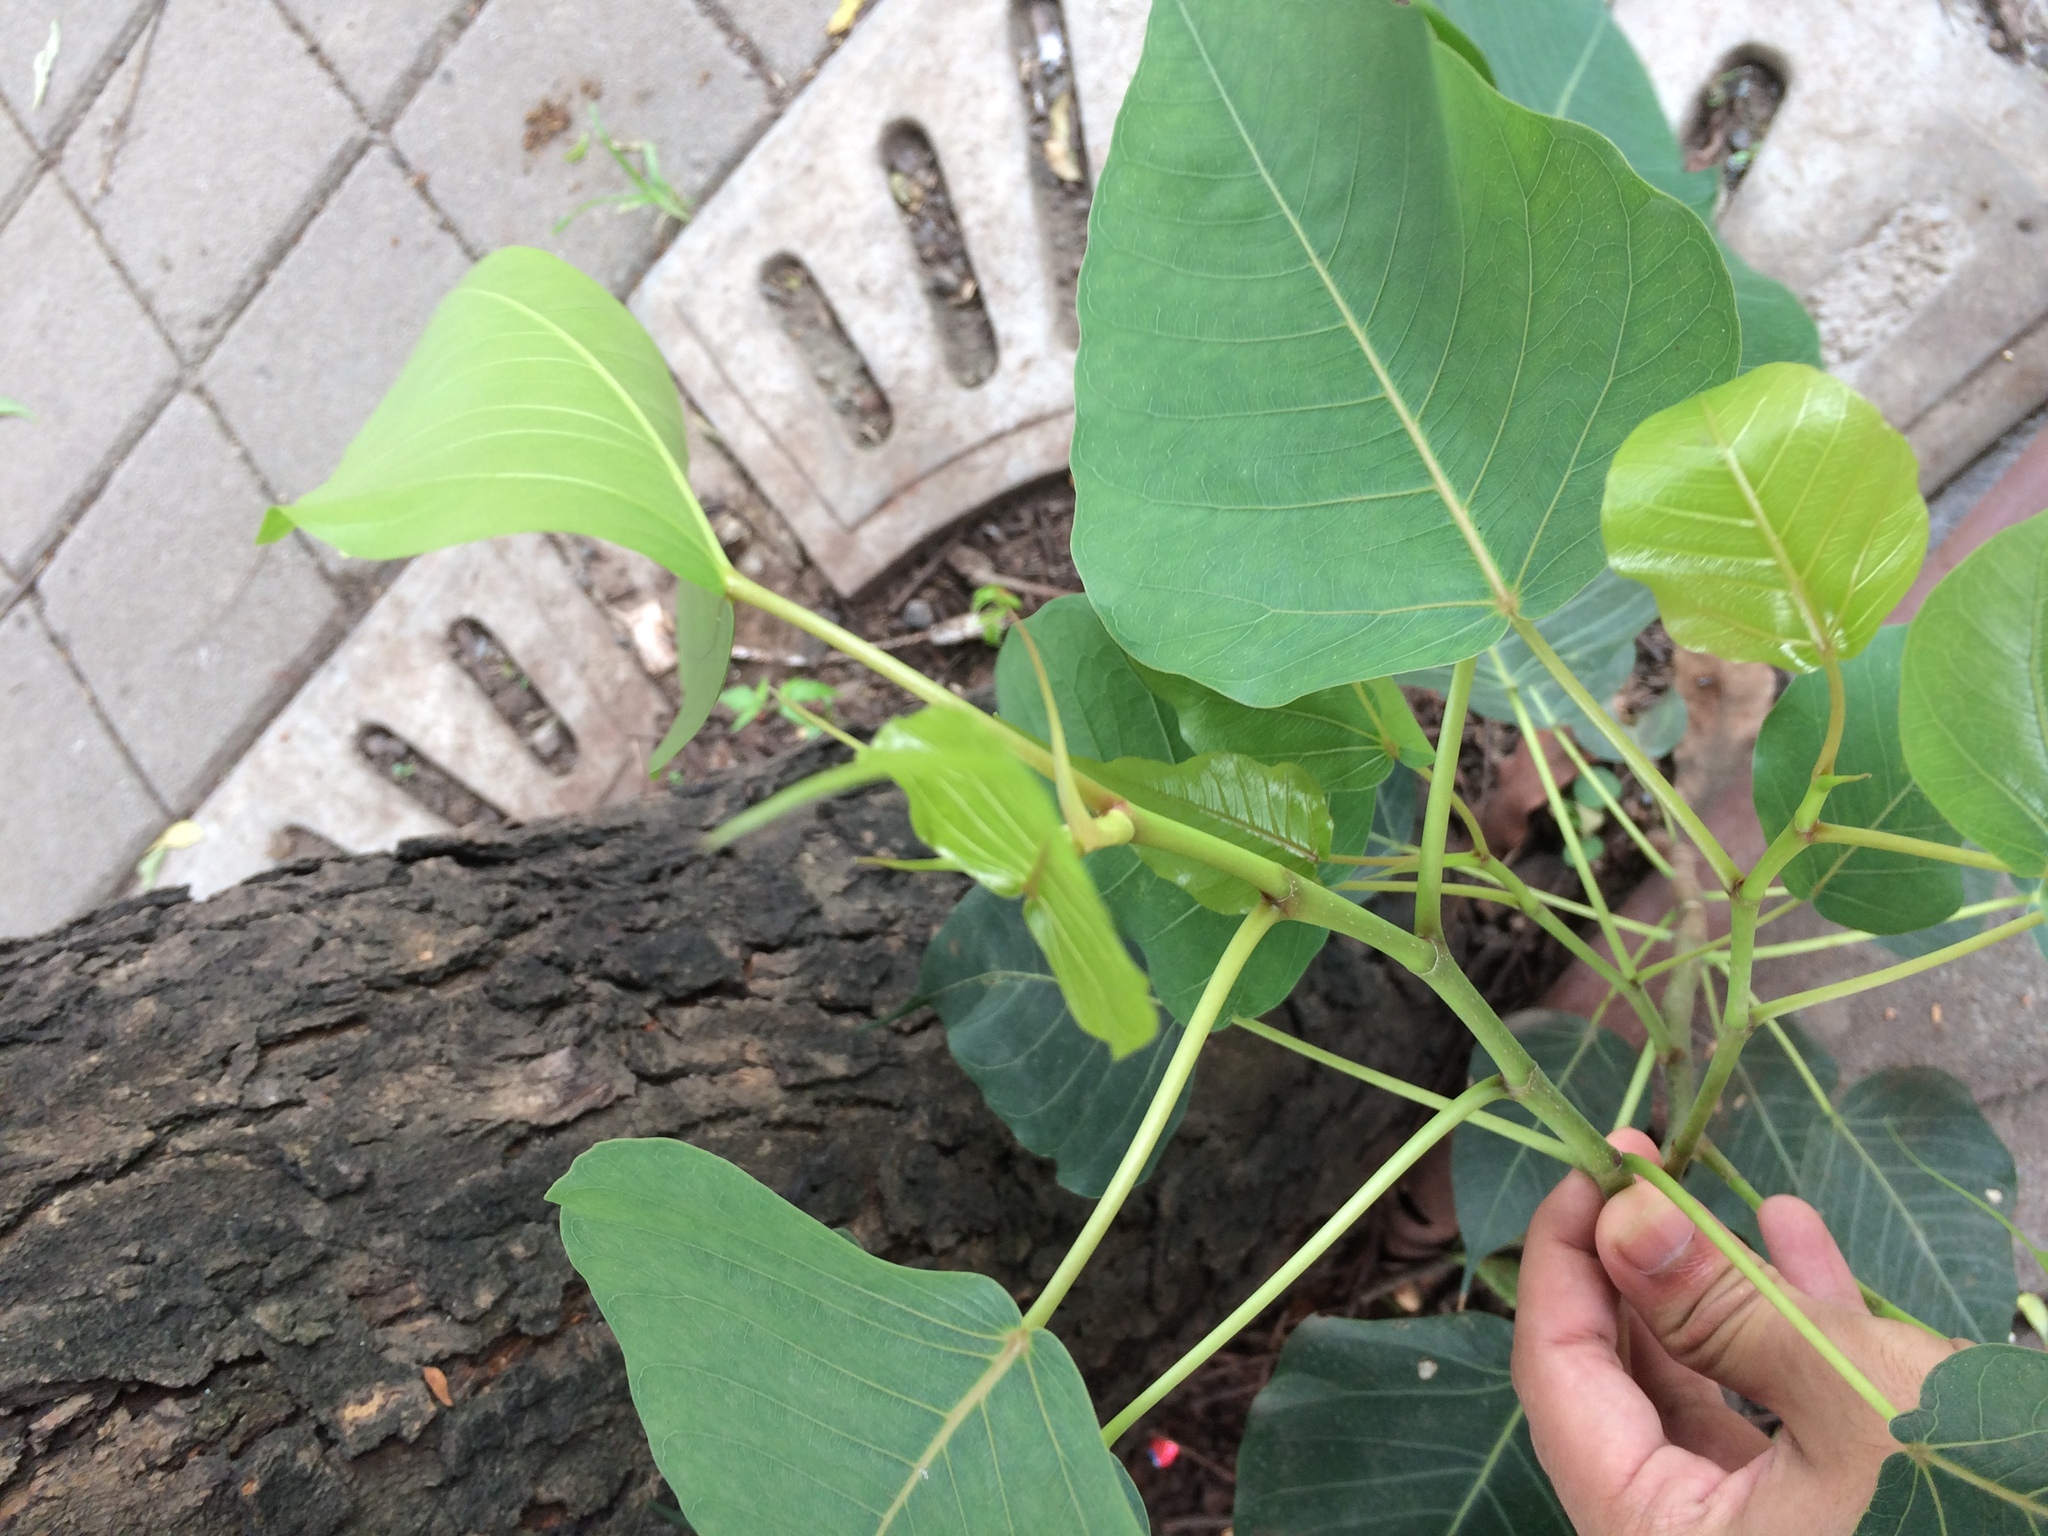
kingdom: Plantae
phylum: Tracheophyta
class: Magnoliopsida
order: Rosales
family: Moraceae
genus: Ficus
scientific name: Ficus religiosa
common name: Bodhi tree
